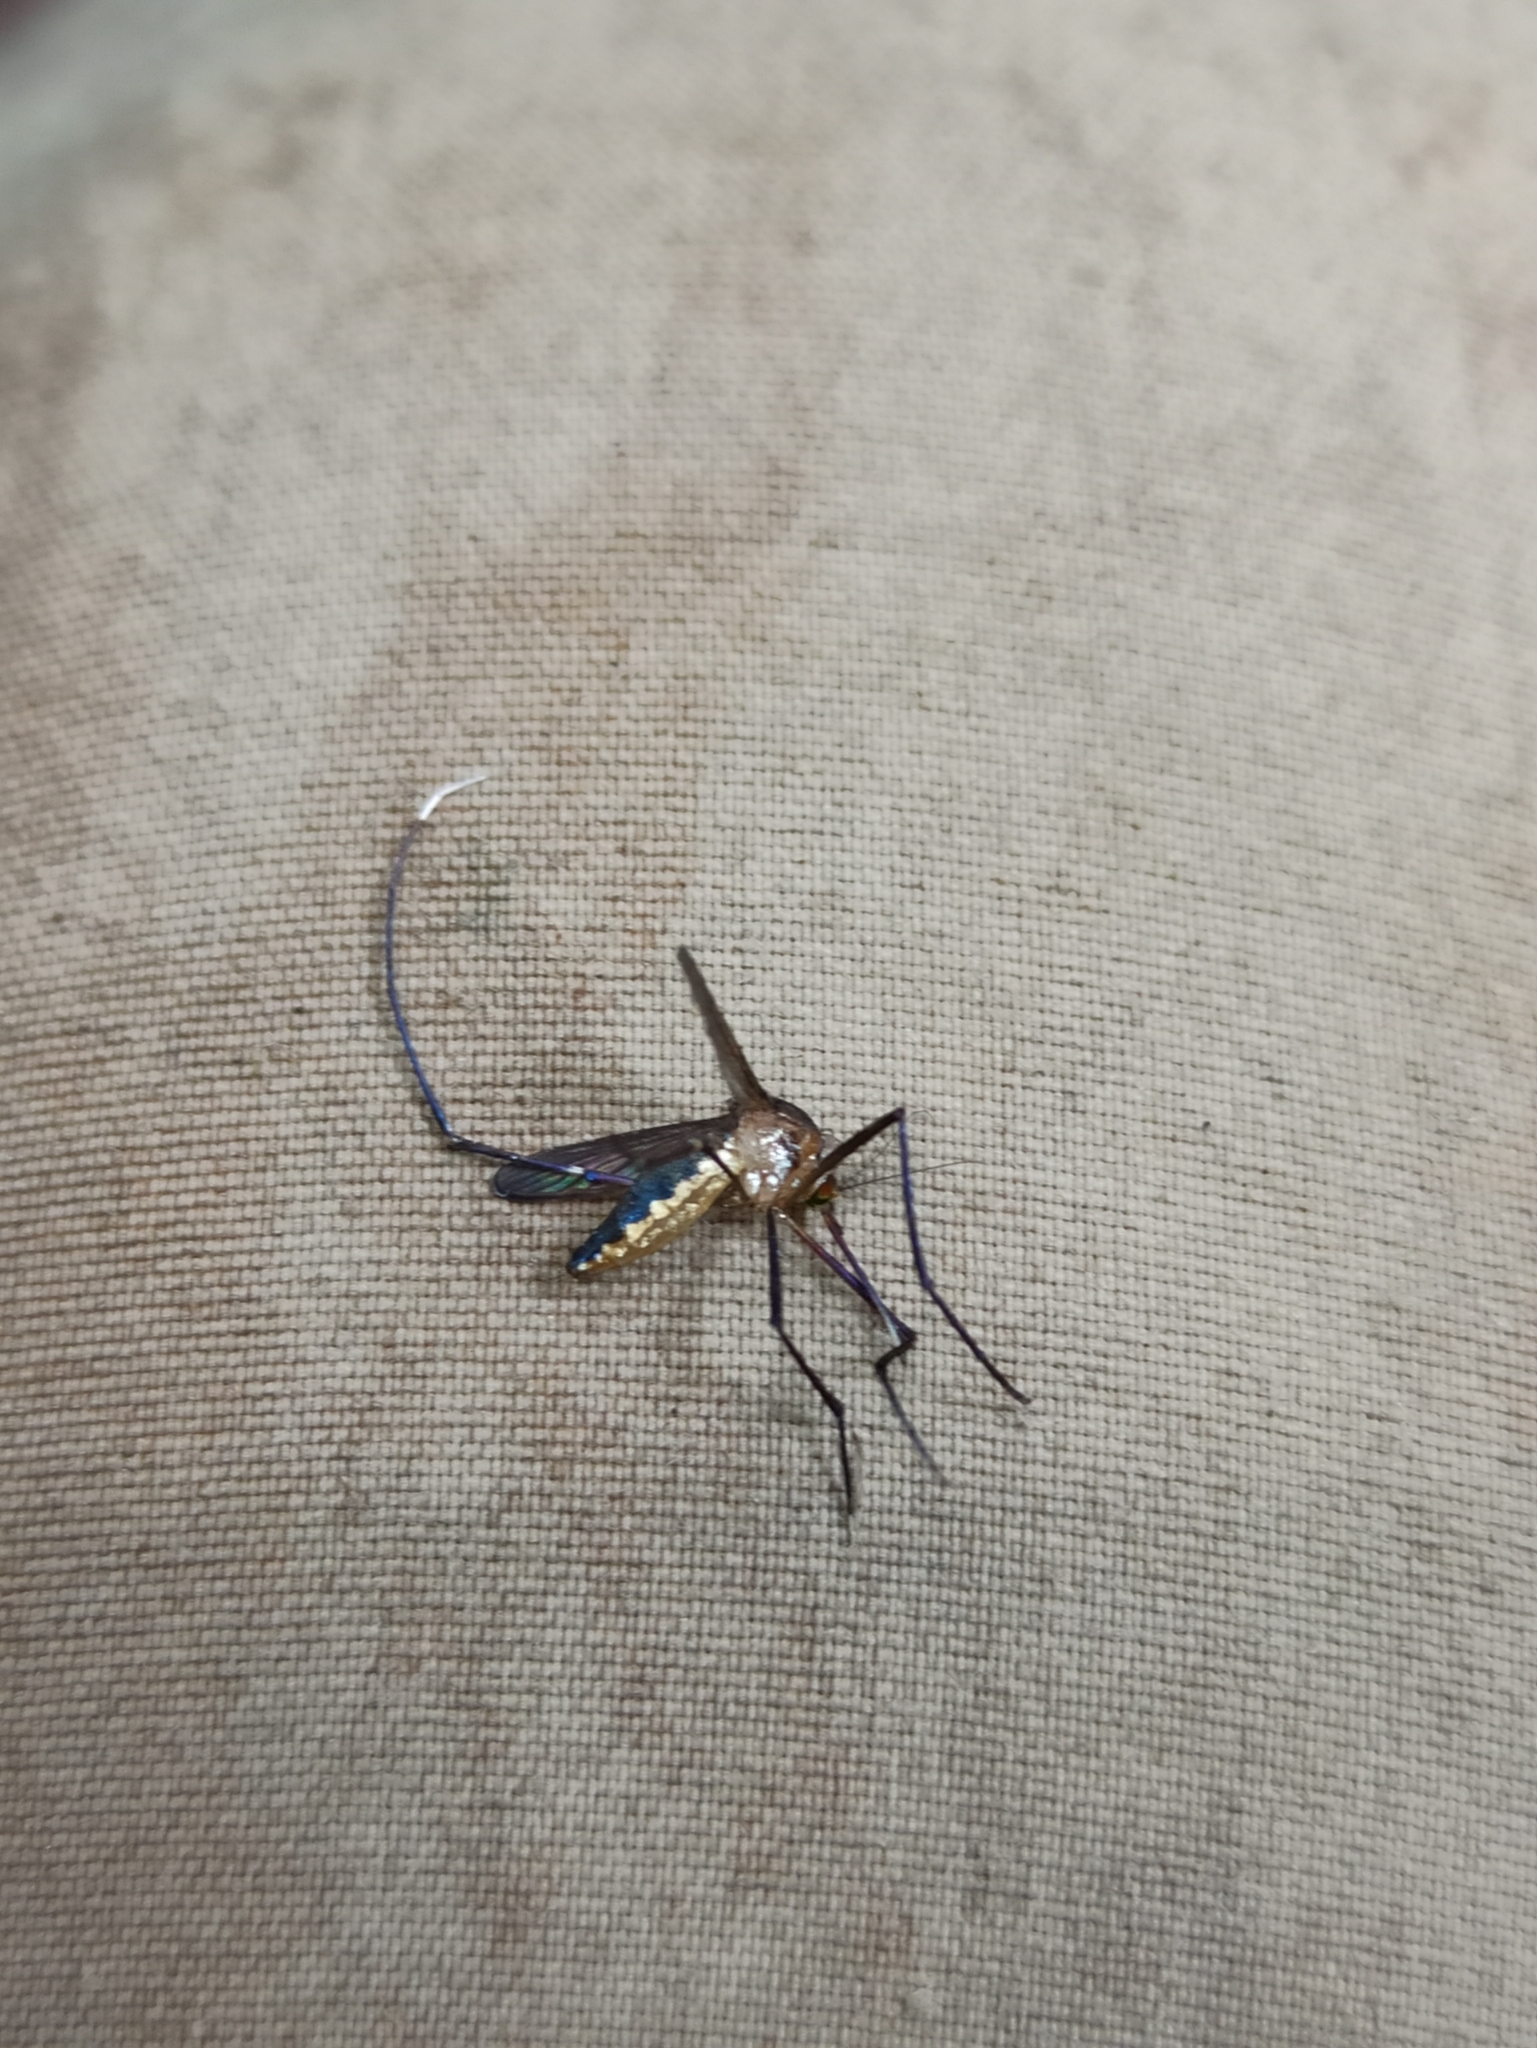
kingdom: Animalia
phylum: Arthropoda
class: Insecta
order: Diptera
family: Culicidae
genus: Psorophora
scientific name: Psorophora ferox
